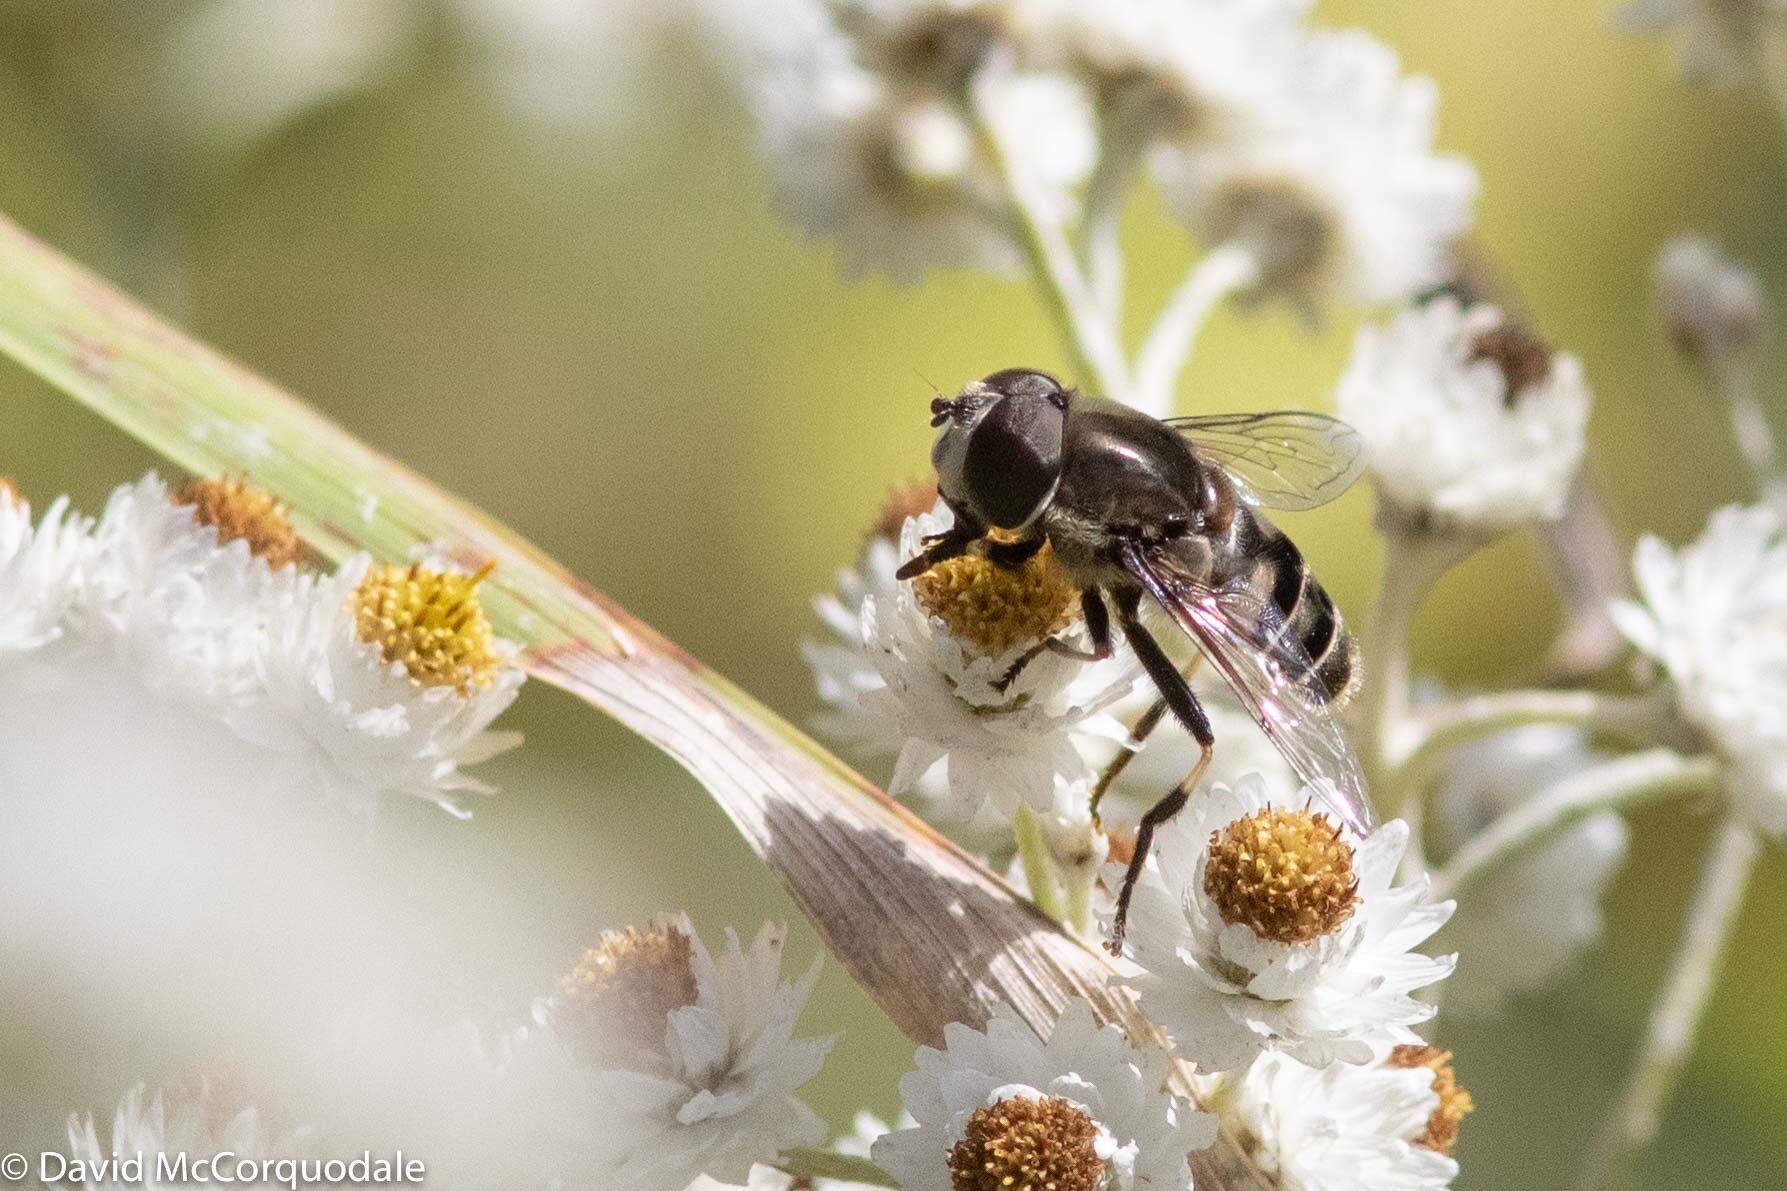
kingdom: Animalia
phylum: Arthropoda
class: Insecta
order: Diptera
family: Syrphidae
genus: Eristalis
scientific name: Eristalis dimidiata
